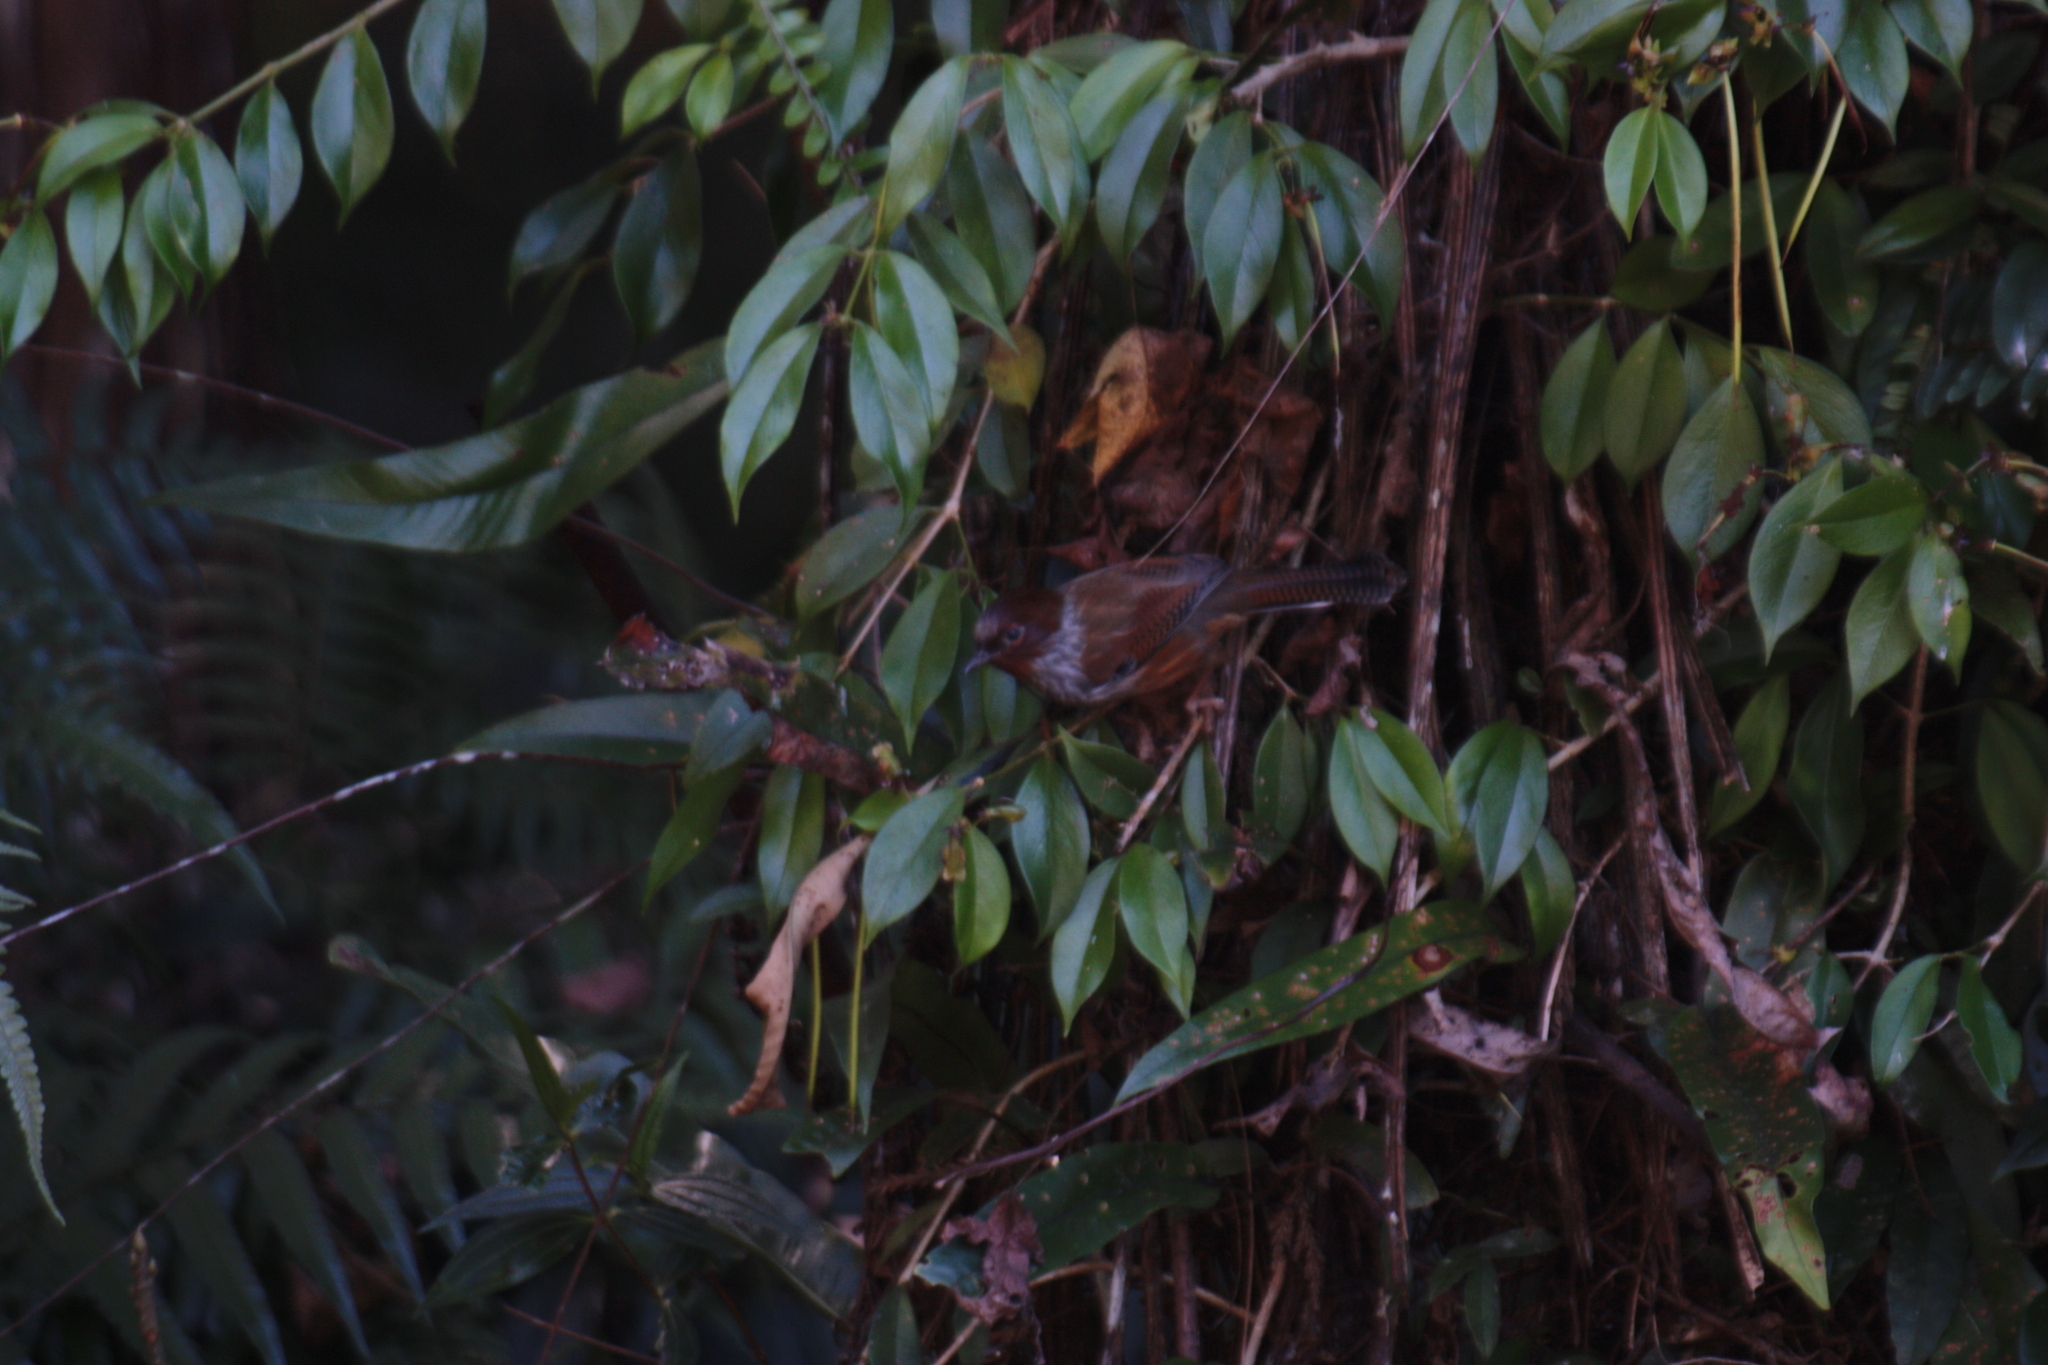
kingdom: Animalia
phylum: Chordata
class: Aves
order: Passeriformes
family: Leiothrichidae
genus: Actinodura
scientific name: Actinodura morrisoniana
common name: Taiwan barwing
